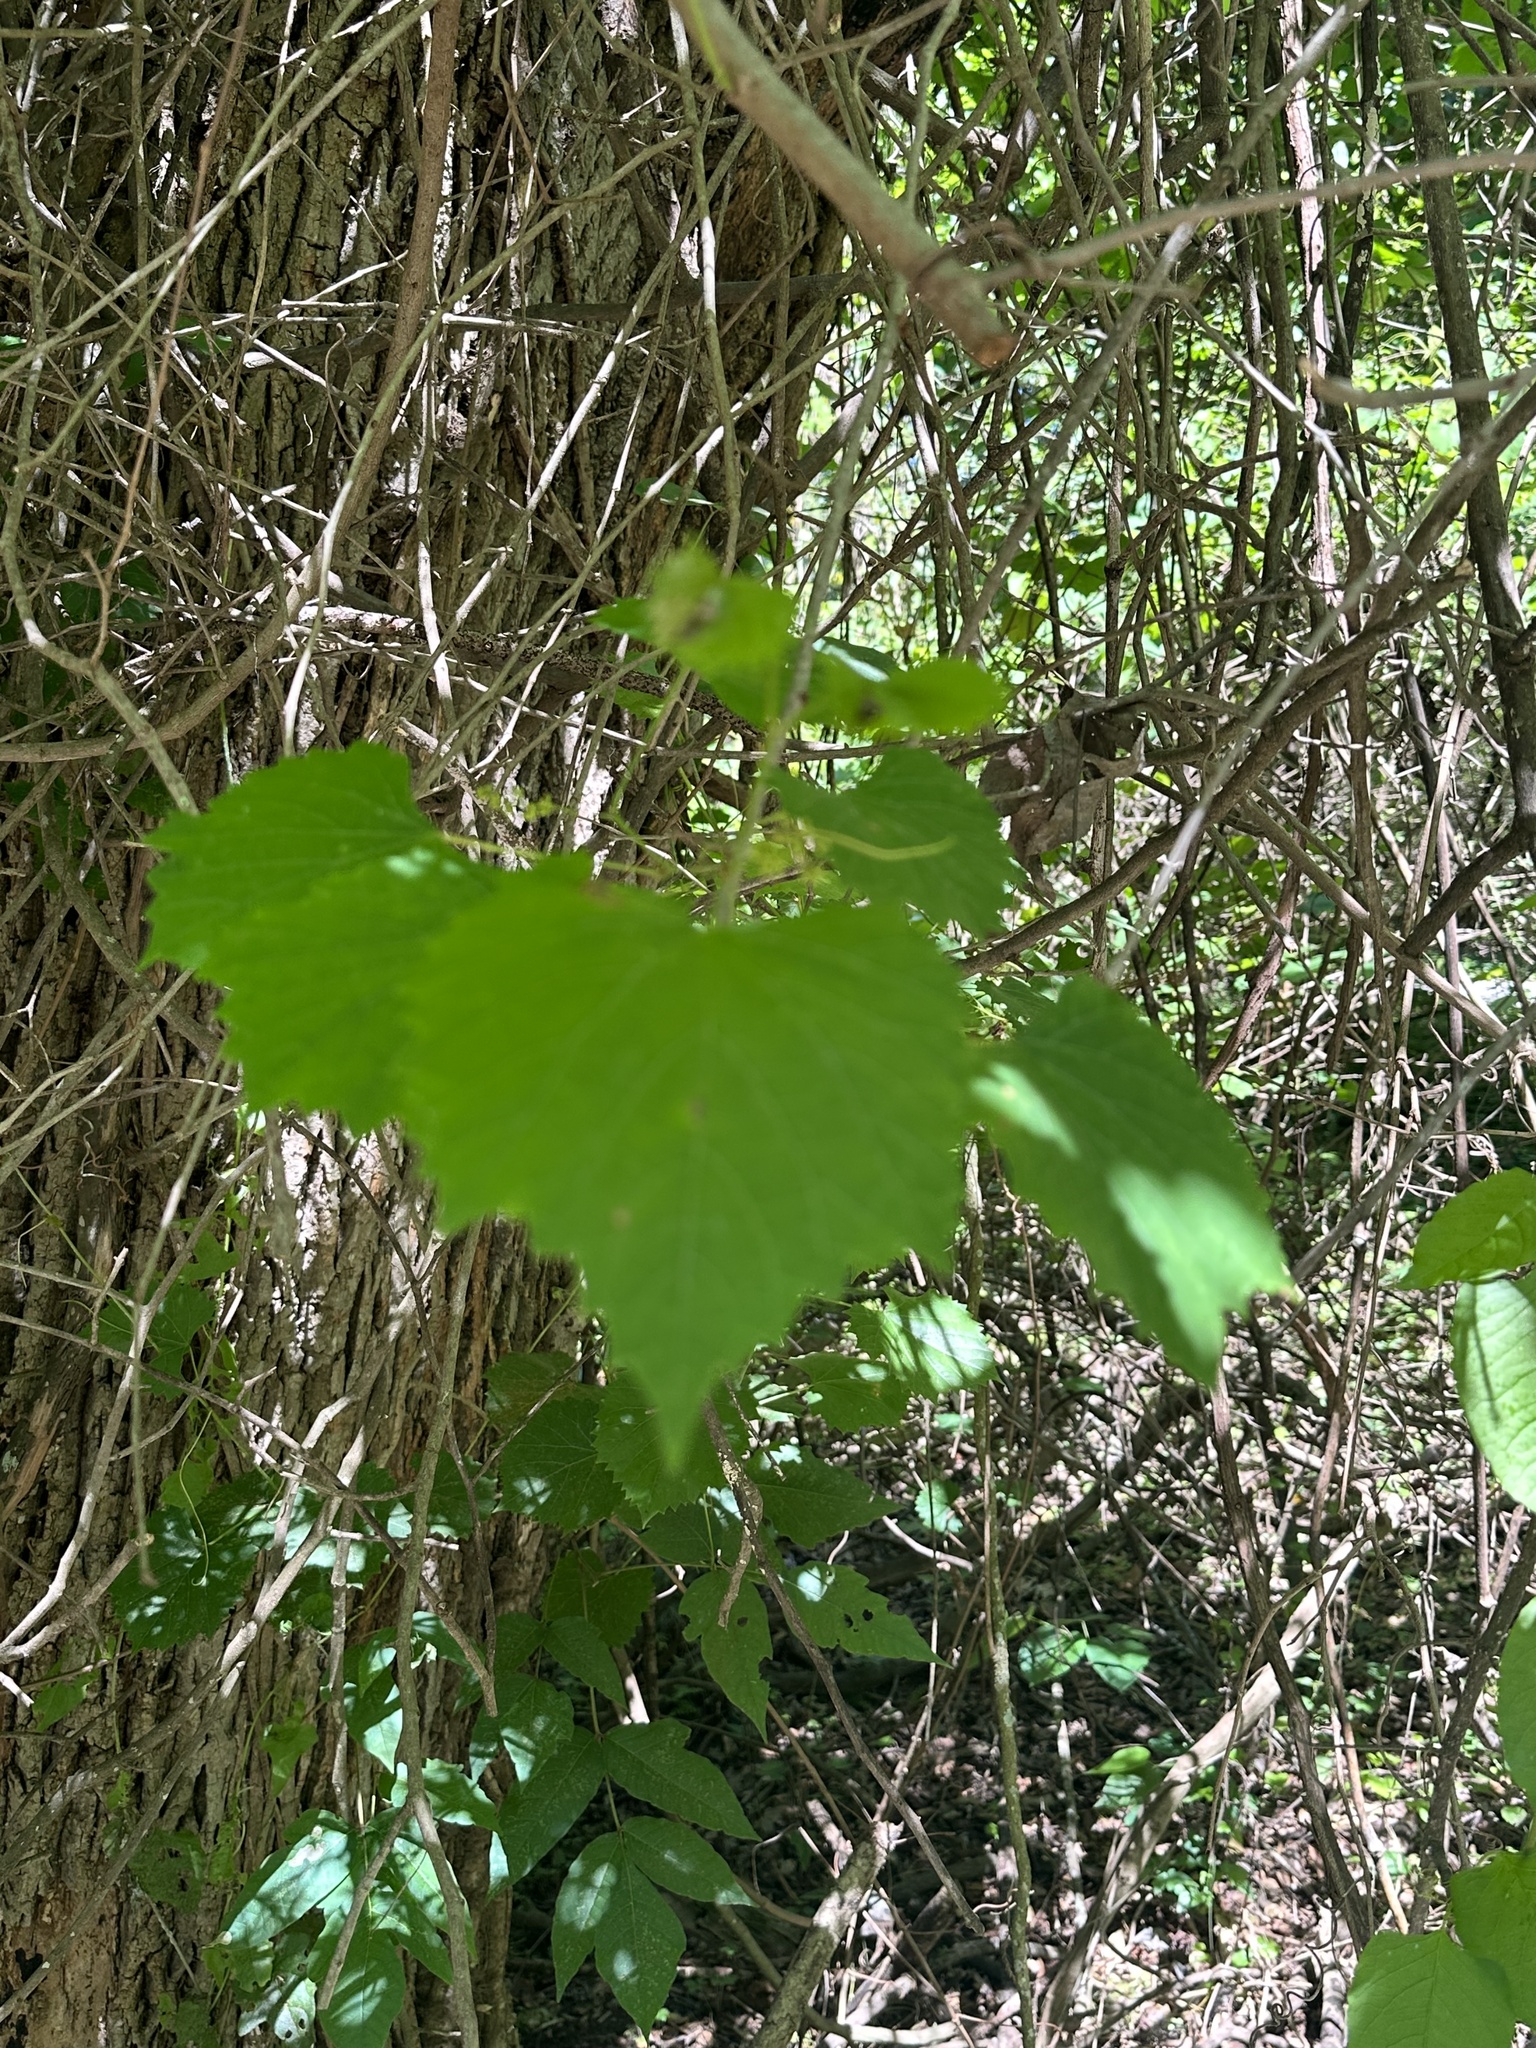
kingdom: Plantae
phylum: Tracheophyta
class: Magnoliopsida
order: Vitales
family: Vitaceae
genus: Vitis
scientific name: Vitis rotundifolia
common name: Muscadine grape
